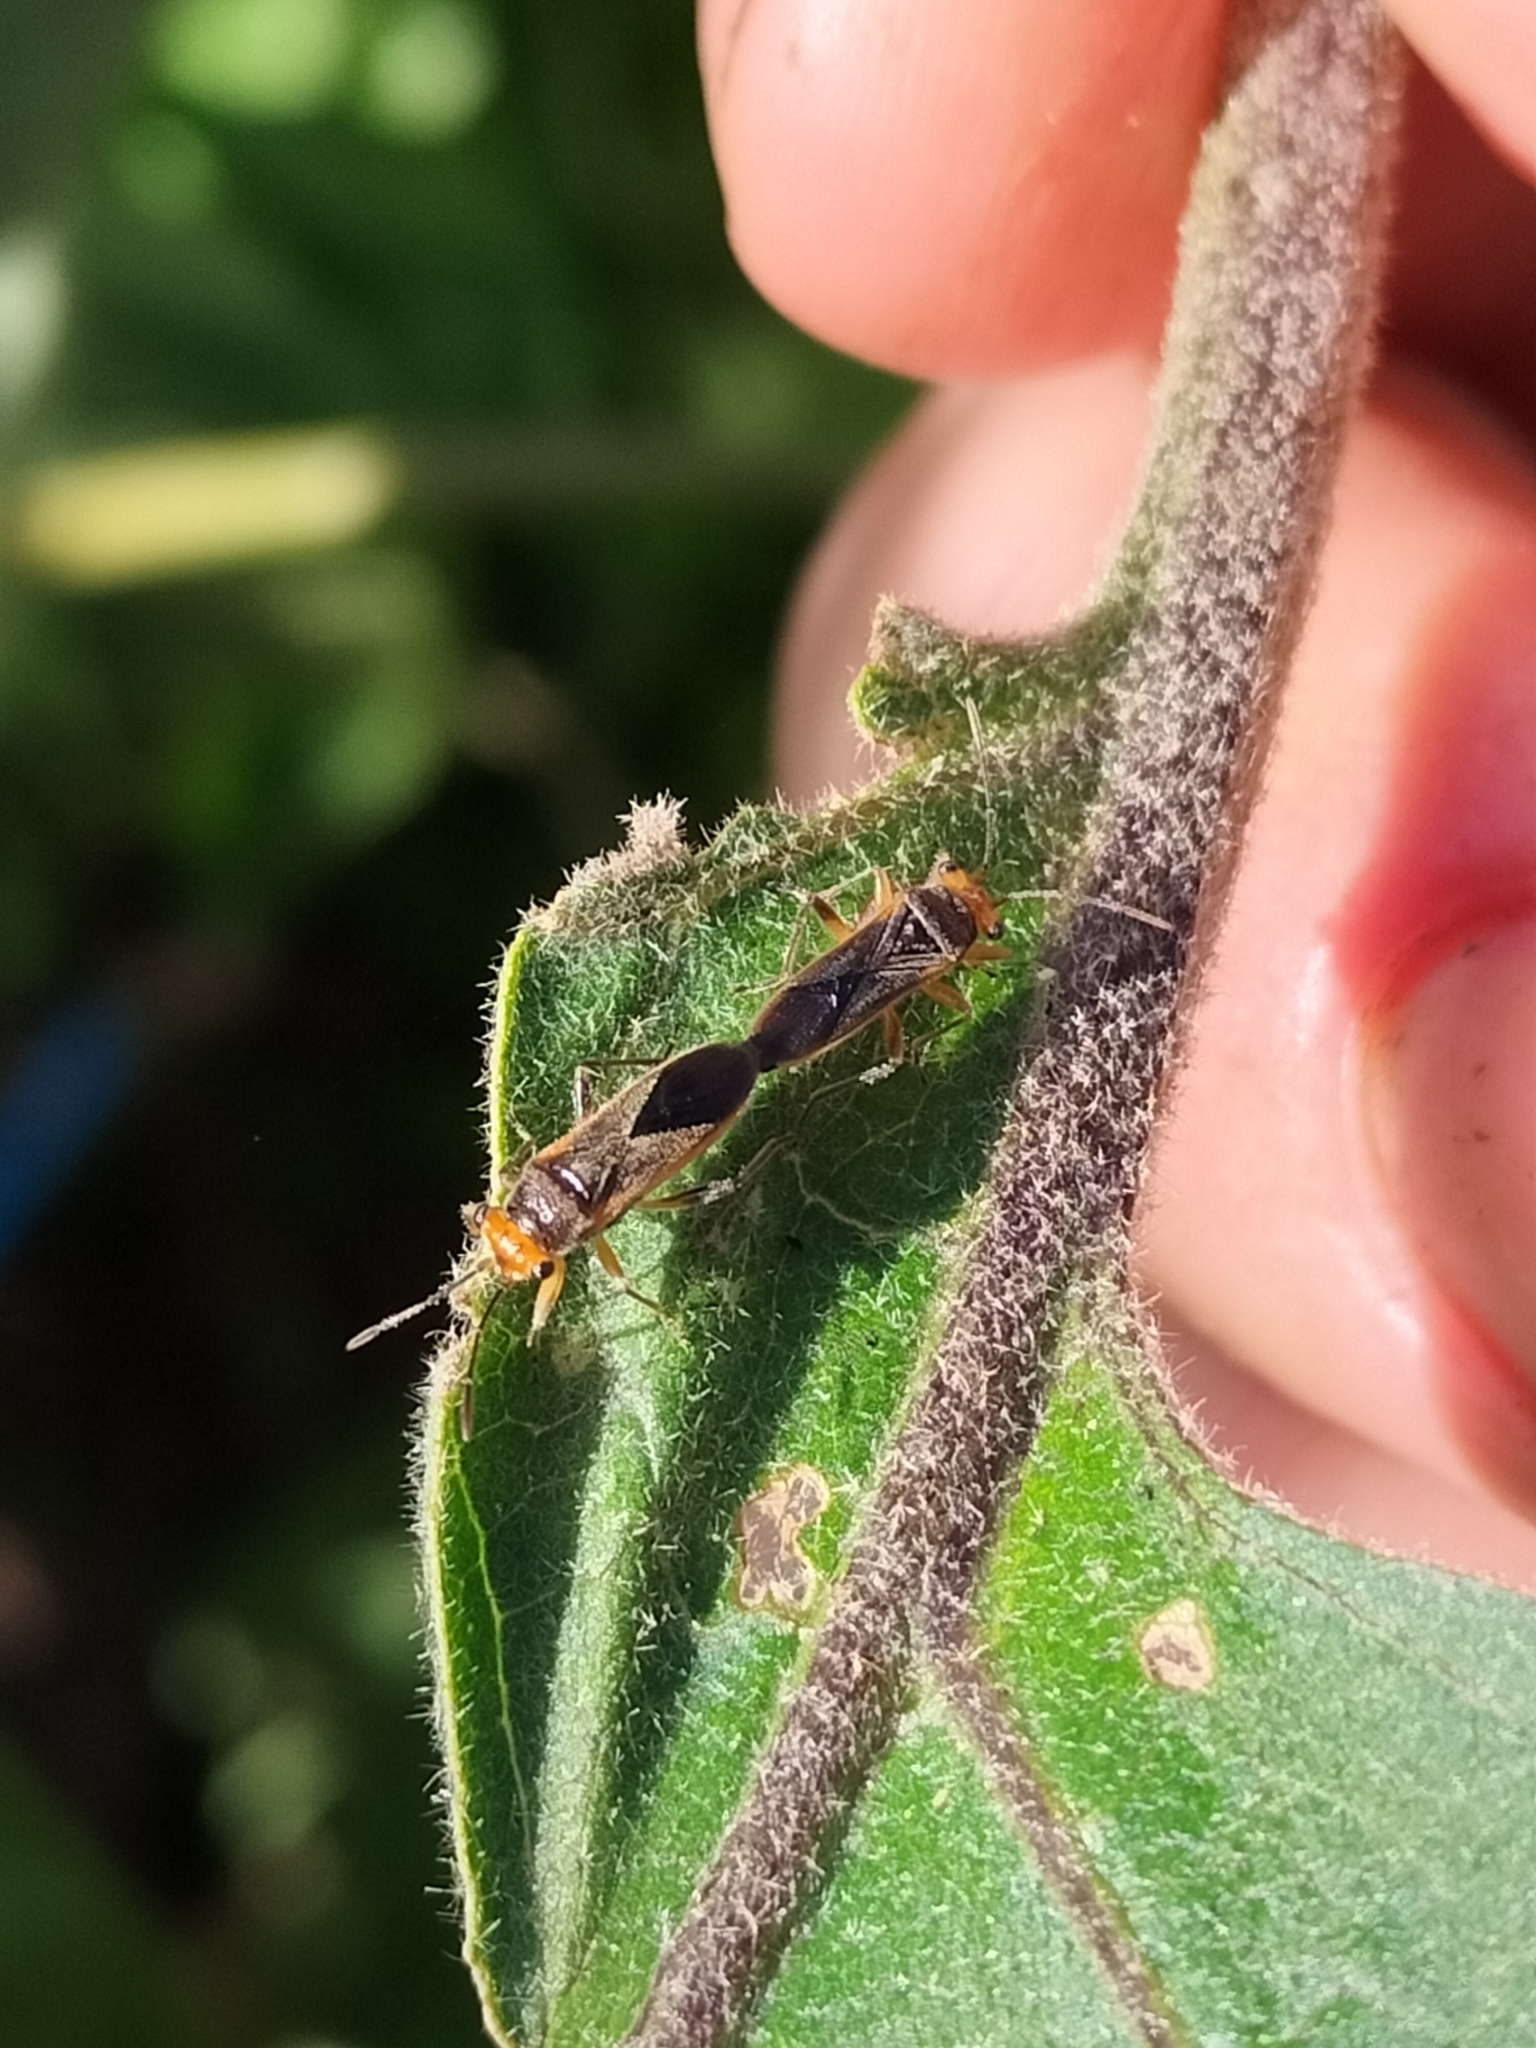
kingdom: Animalia
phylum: Arthropoda
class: Insecta
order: Hemiptera
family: Lygaeidae
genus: Scopiastes
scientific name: Scopiastes bicolor
